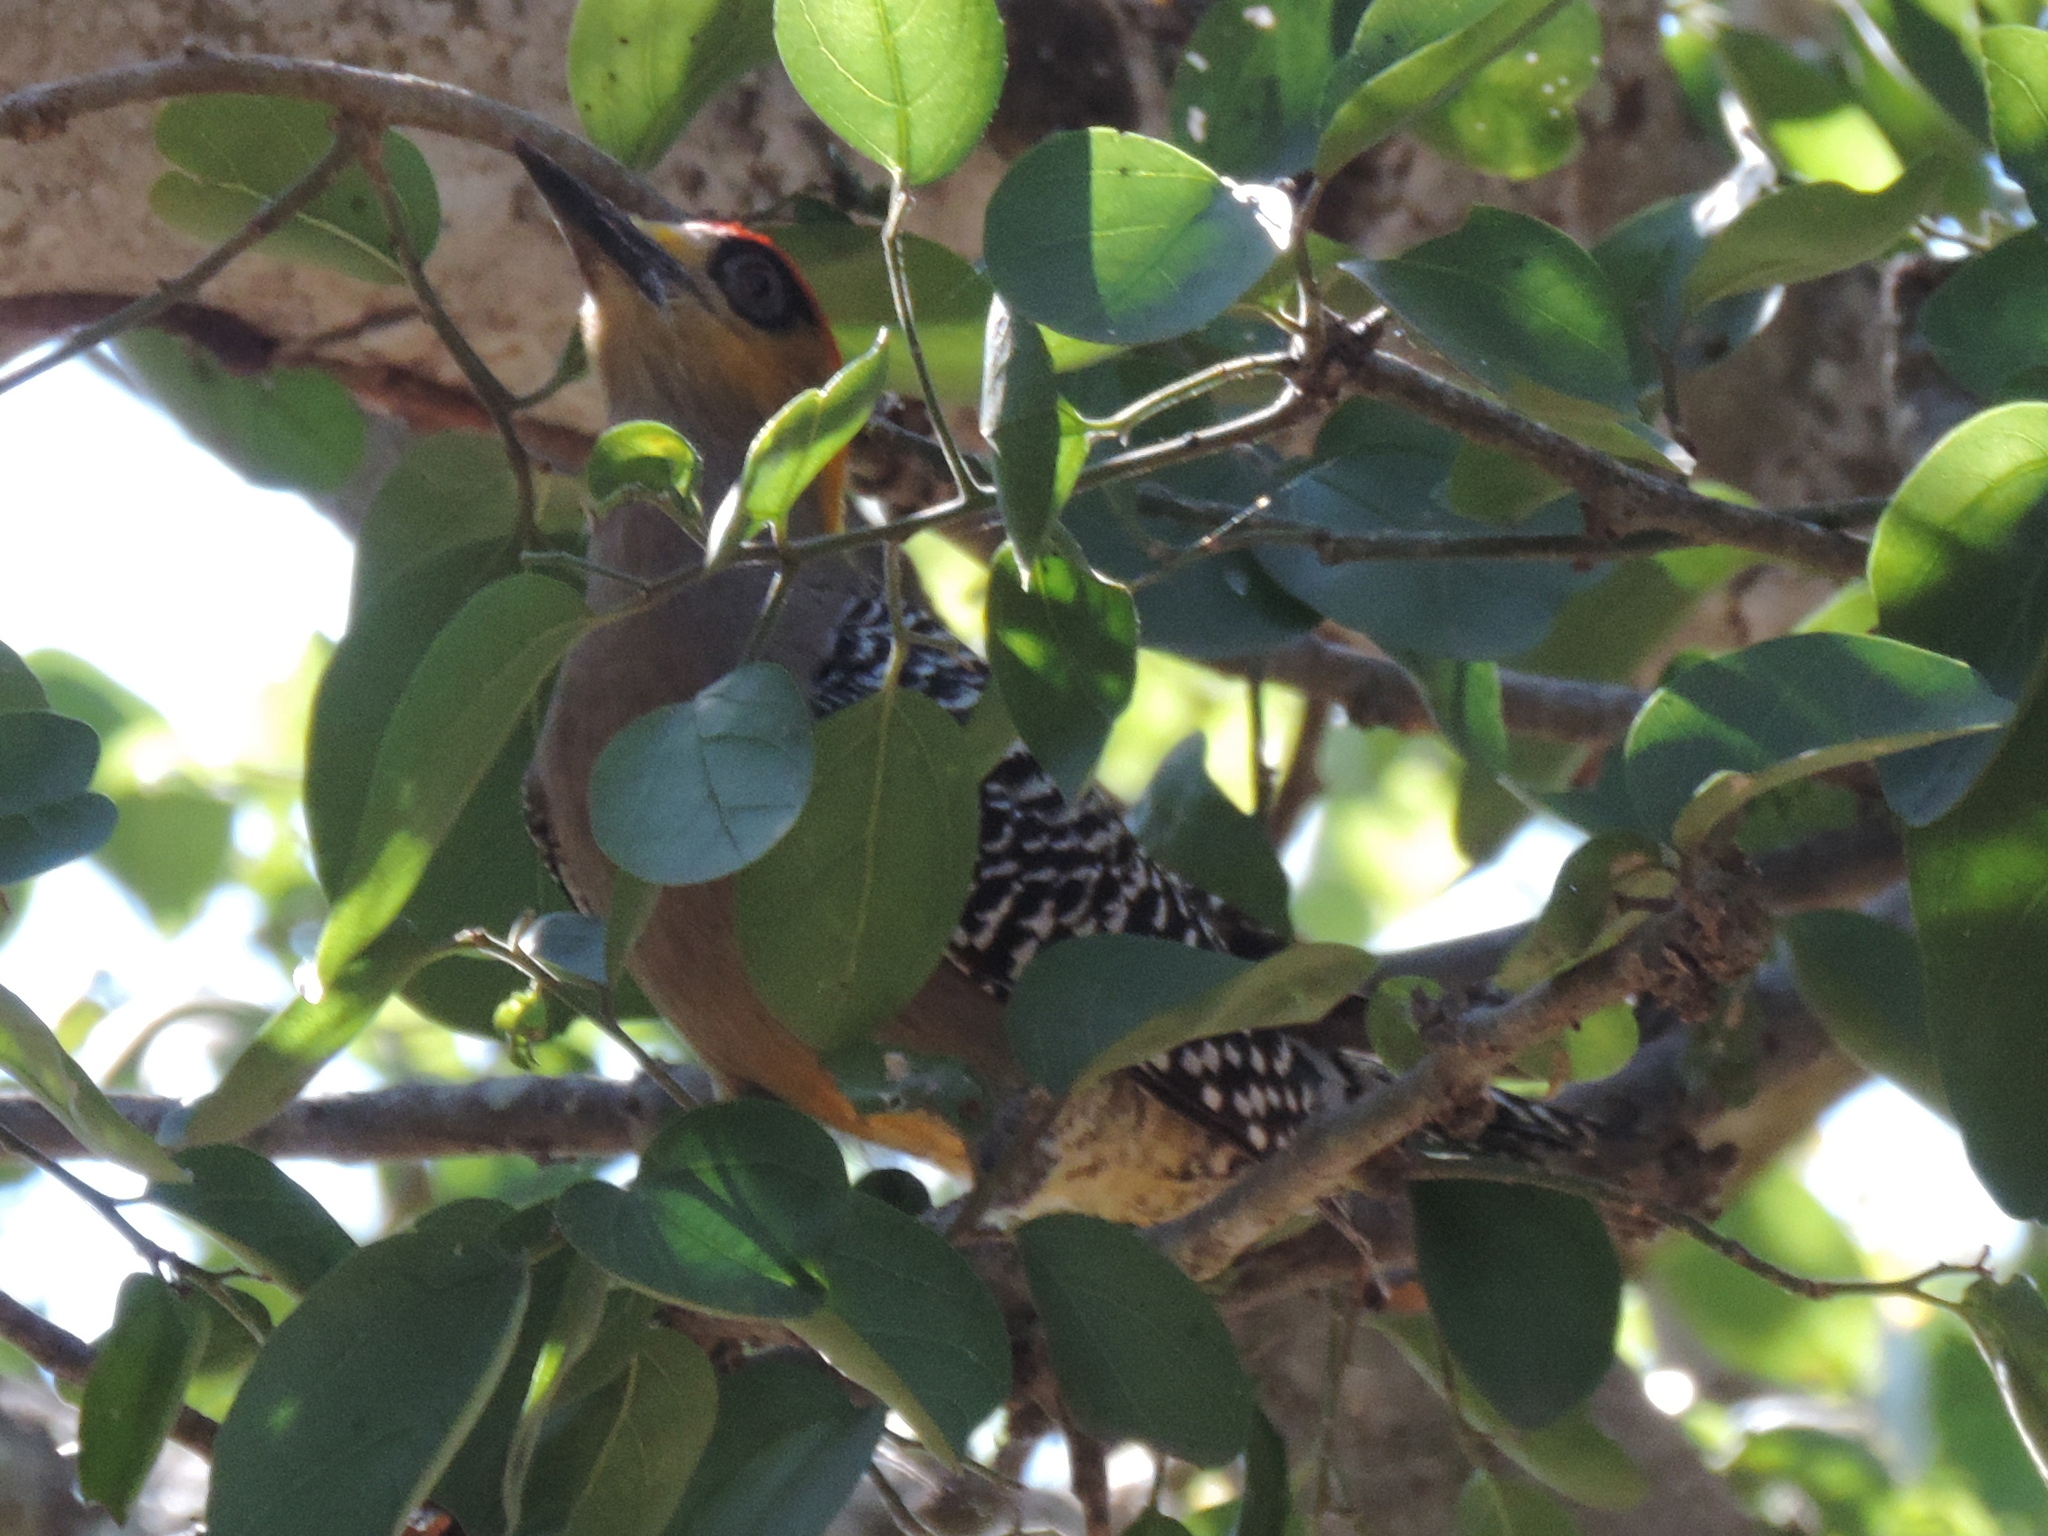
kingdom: Animalia
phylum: Chordata
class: Aves
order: Piciformes
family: Picidae
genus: Melanerpes
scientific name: Melanerpes chrysogenys
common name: Golden-cheeked woodpecker
